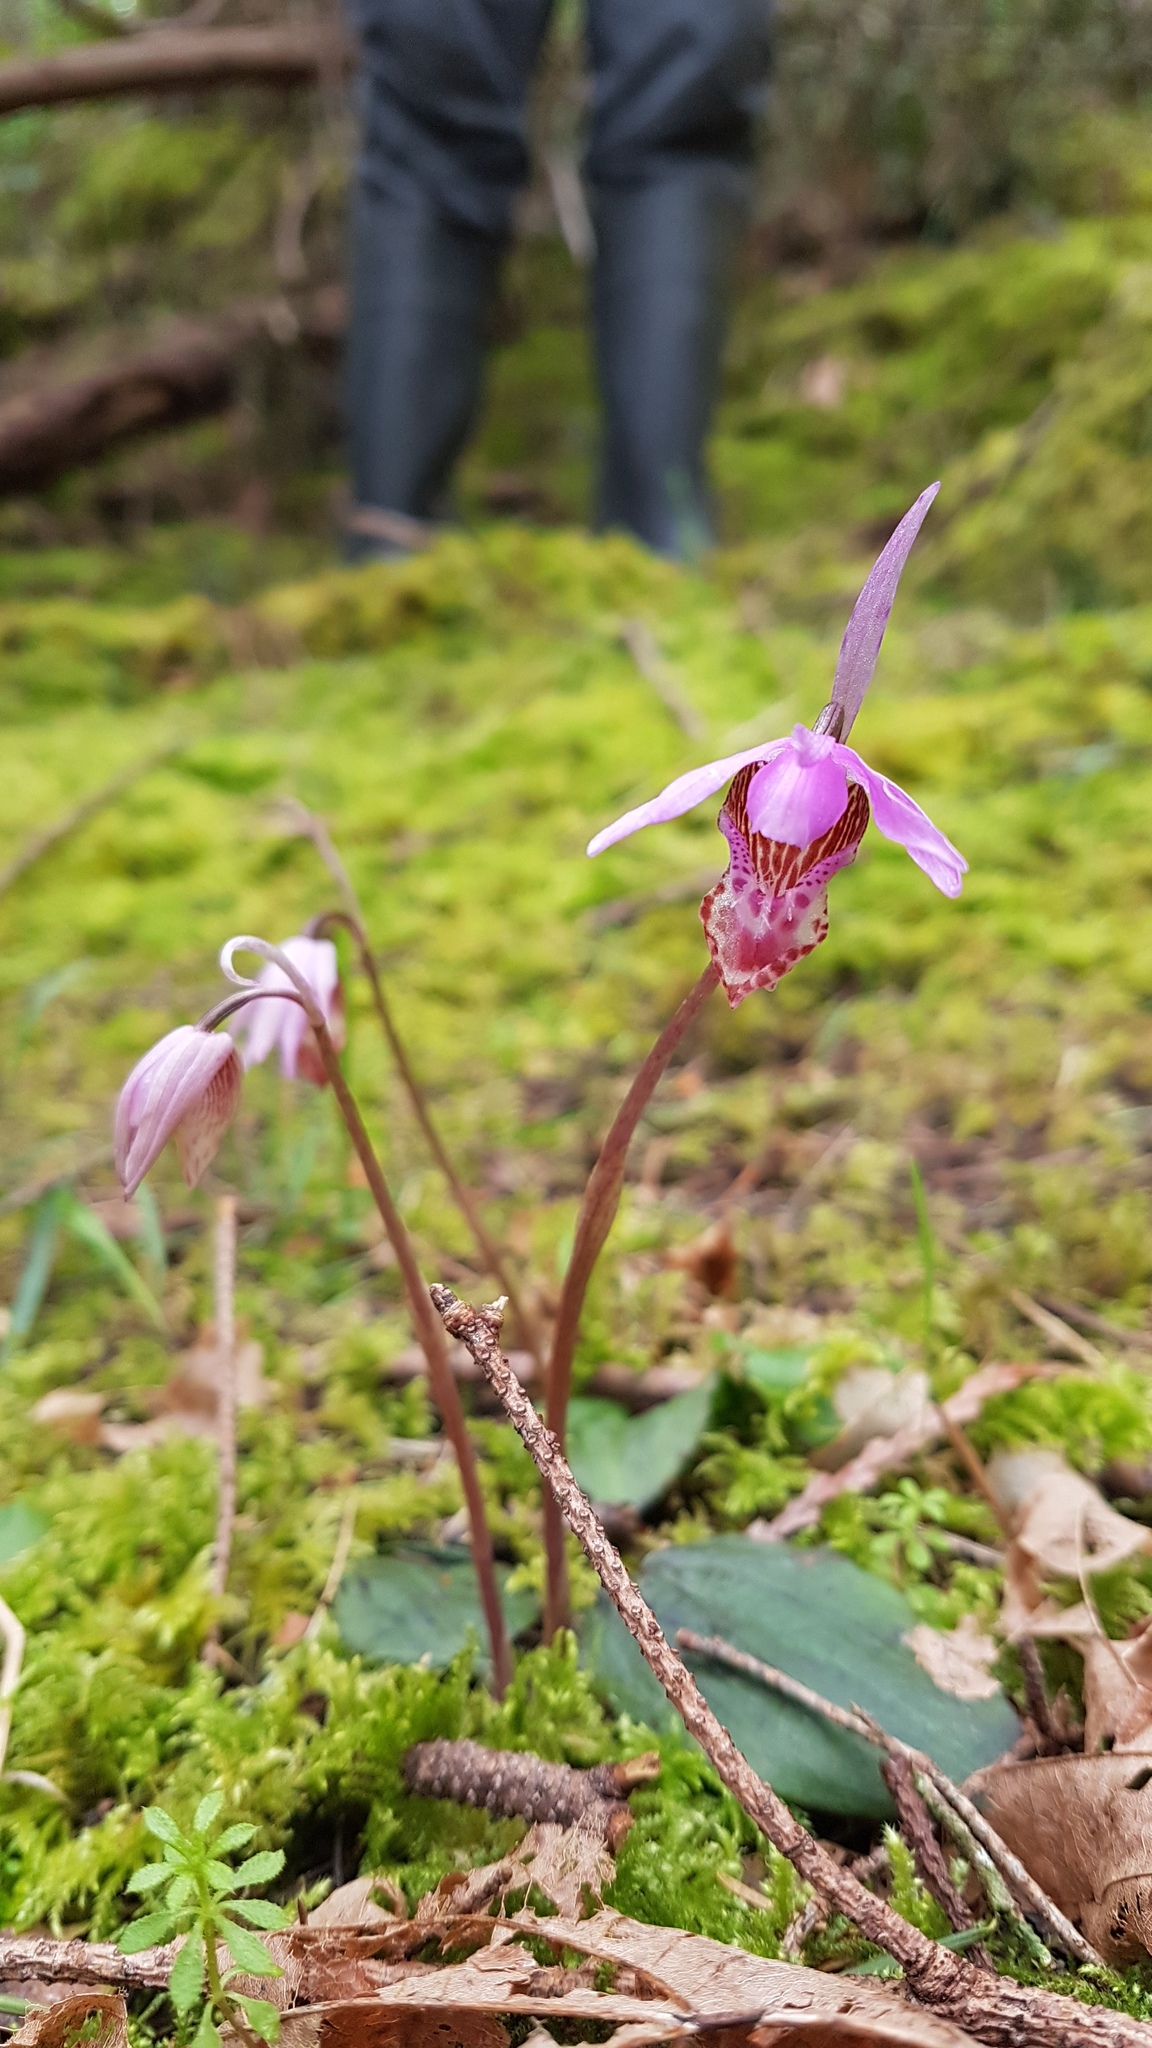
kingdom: Plantae
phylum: Tracheophyta
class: Liliopsida
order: Asparagales
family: Orchidaceae
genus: Calypso
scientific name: Calypso bulbosa
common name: Calypso
